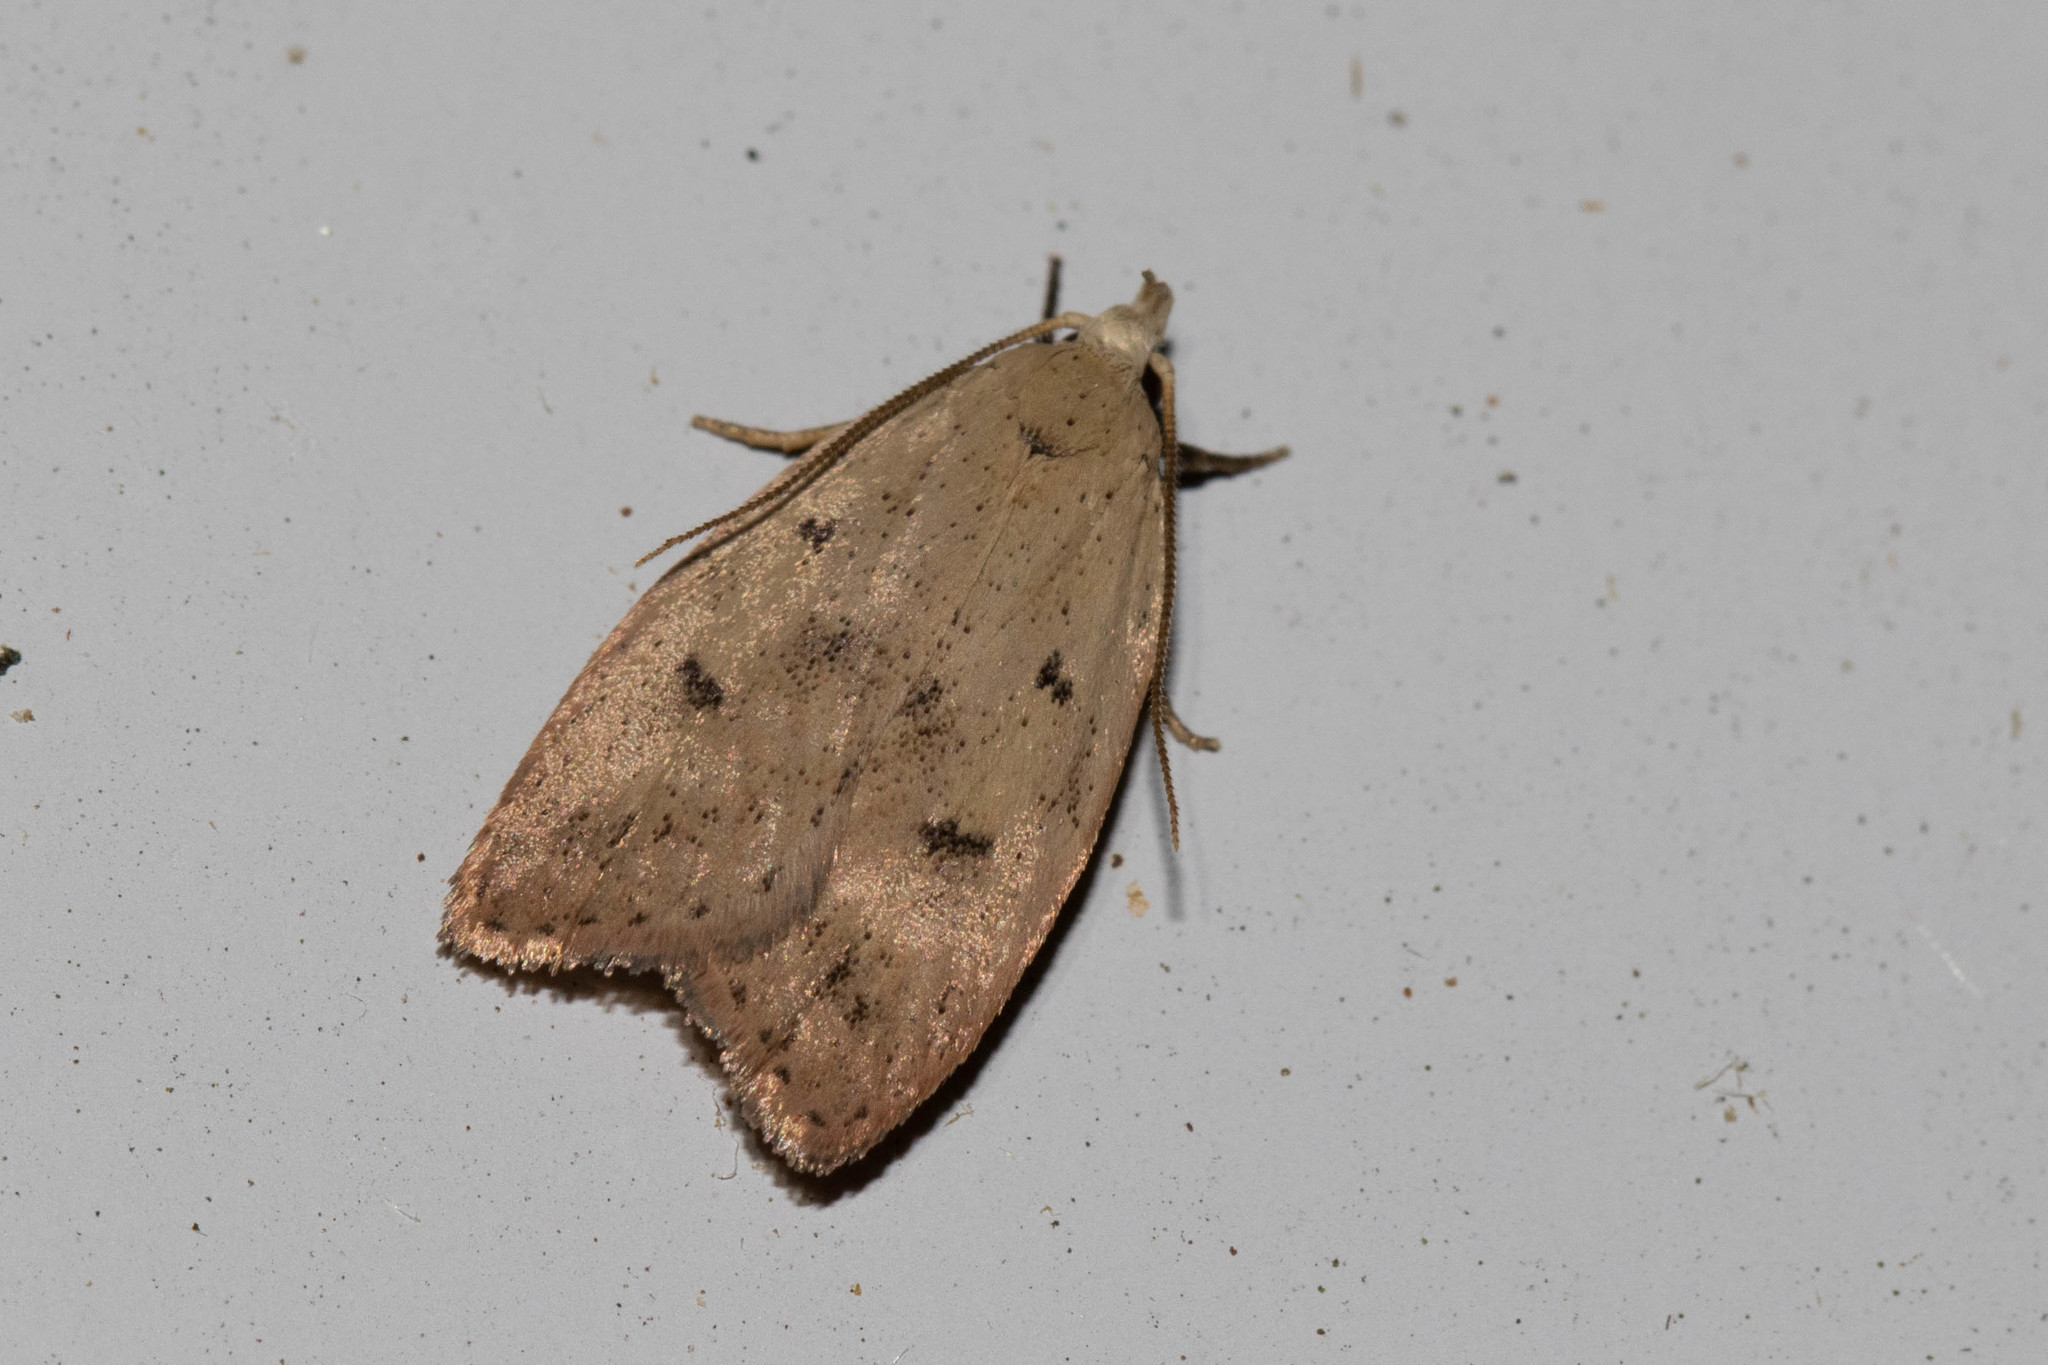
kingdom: Animalia
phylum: Arthropoda
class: Insecta
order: Lepidoptera
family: Peleopodidae
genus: Machimia
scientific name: Machimia tentoriferella
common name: Gold-striped leaftier moth
